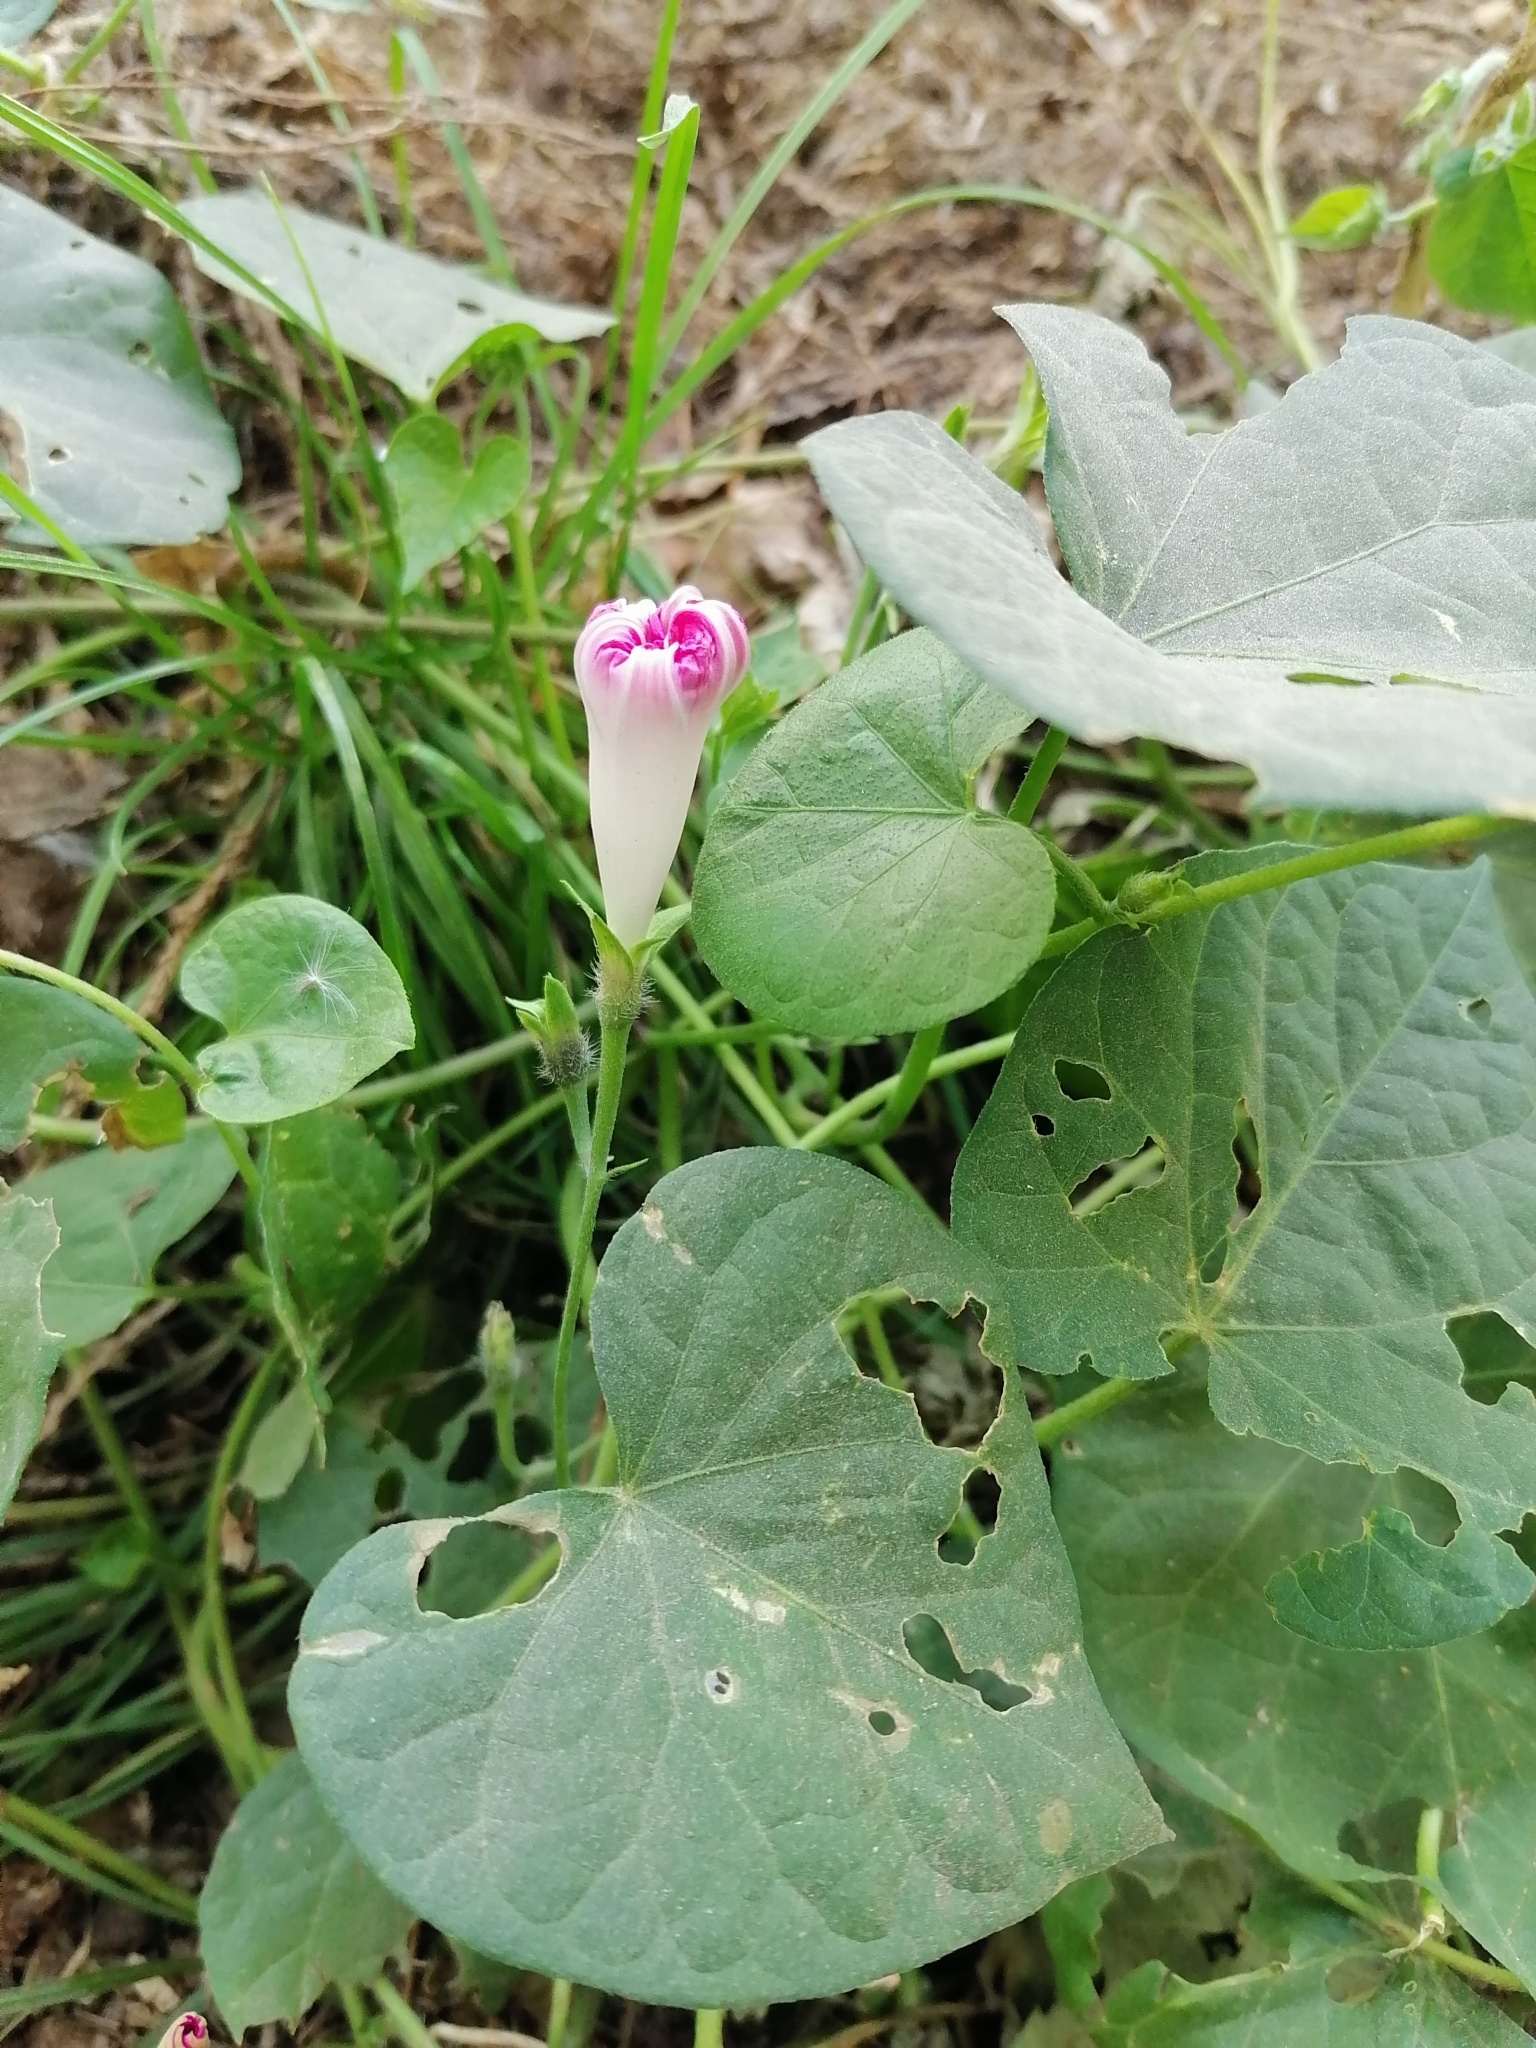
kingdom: Plantae
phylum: Tracheophyta
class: Magnoliopsida
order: Solanales
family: Convolvulaceae
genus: Ipomoea
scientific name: Ipomoea purpurea
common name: Common morning-glory
